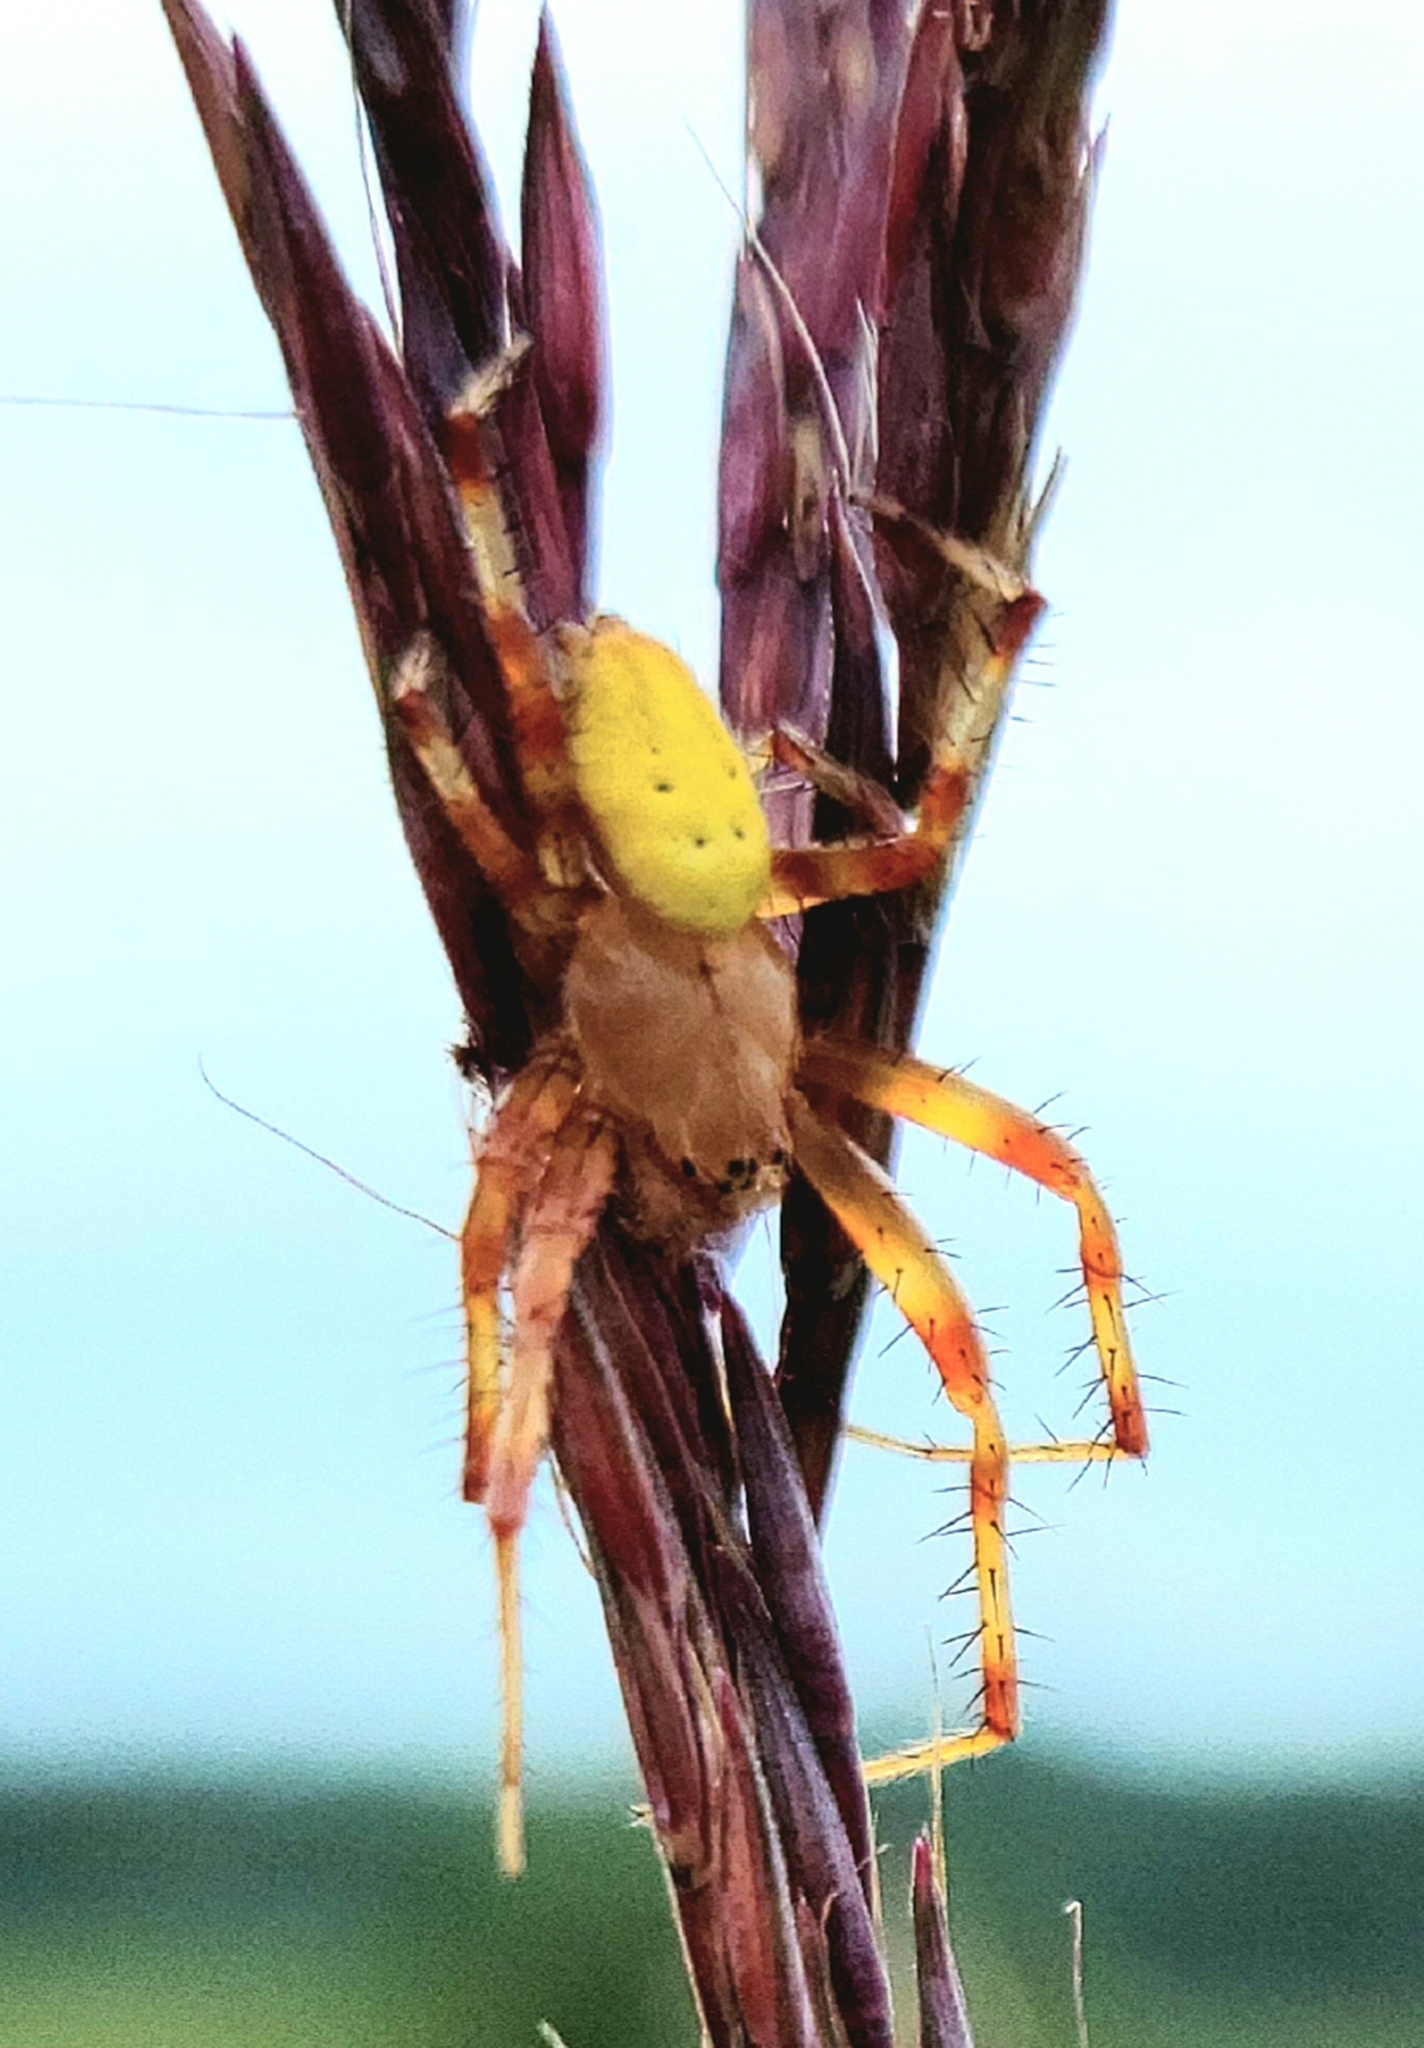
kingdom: Animalia
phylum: Arthropoda
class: Arachnida
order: Araneae
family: Araneidae
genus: Araneus
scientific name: Araneus trifolium
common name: Shamrock orbweaver
